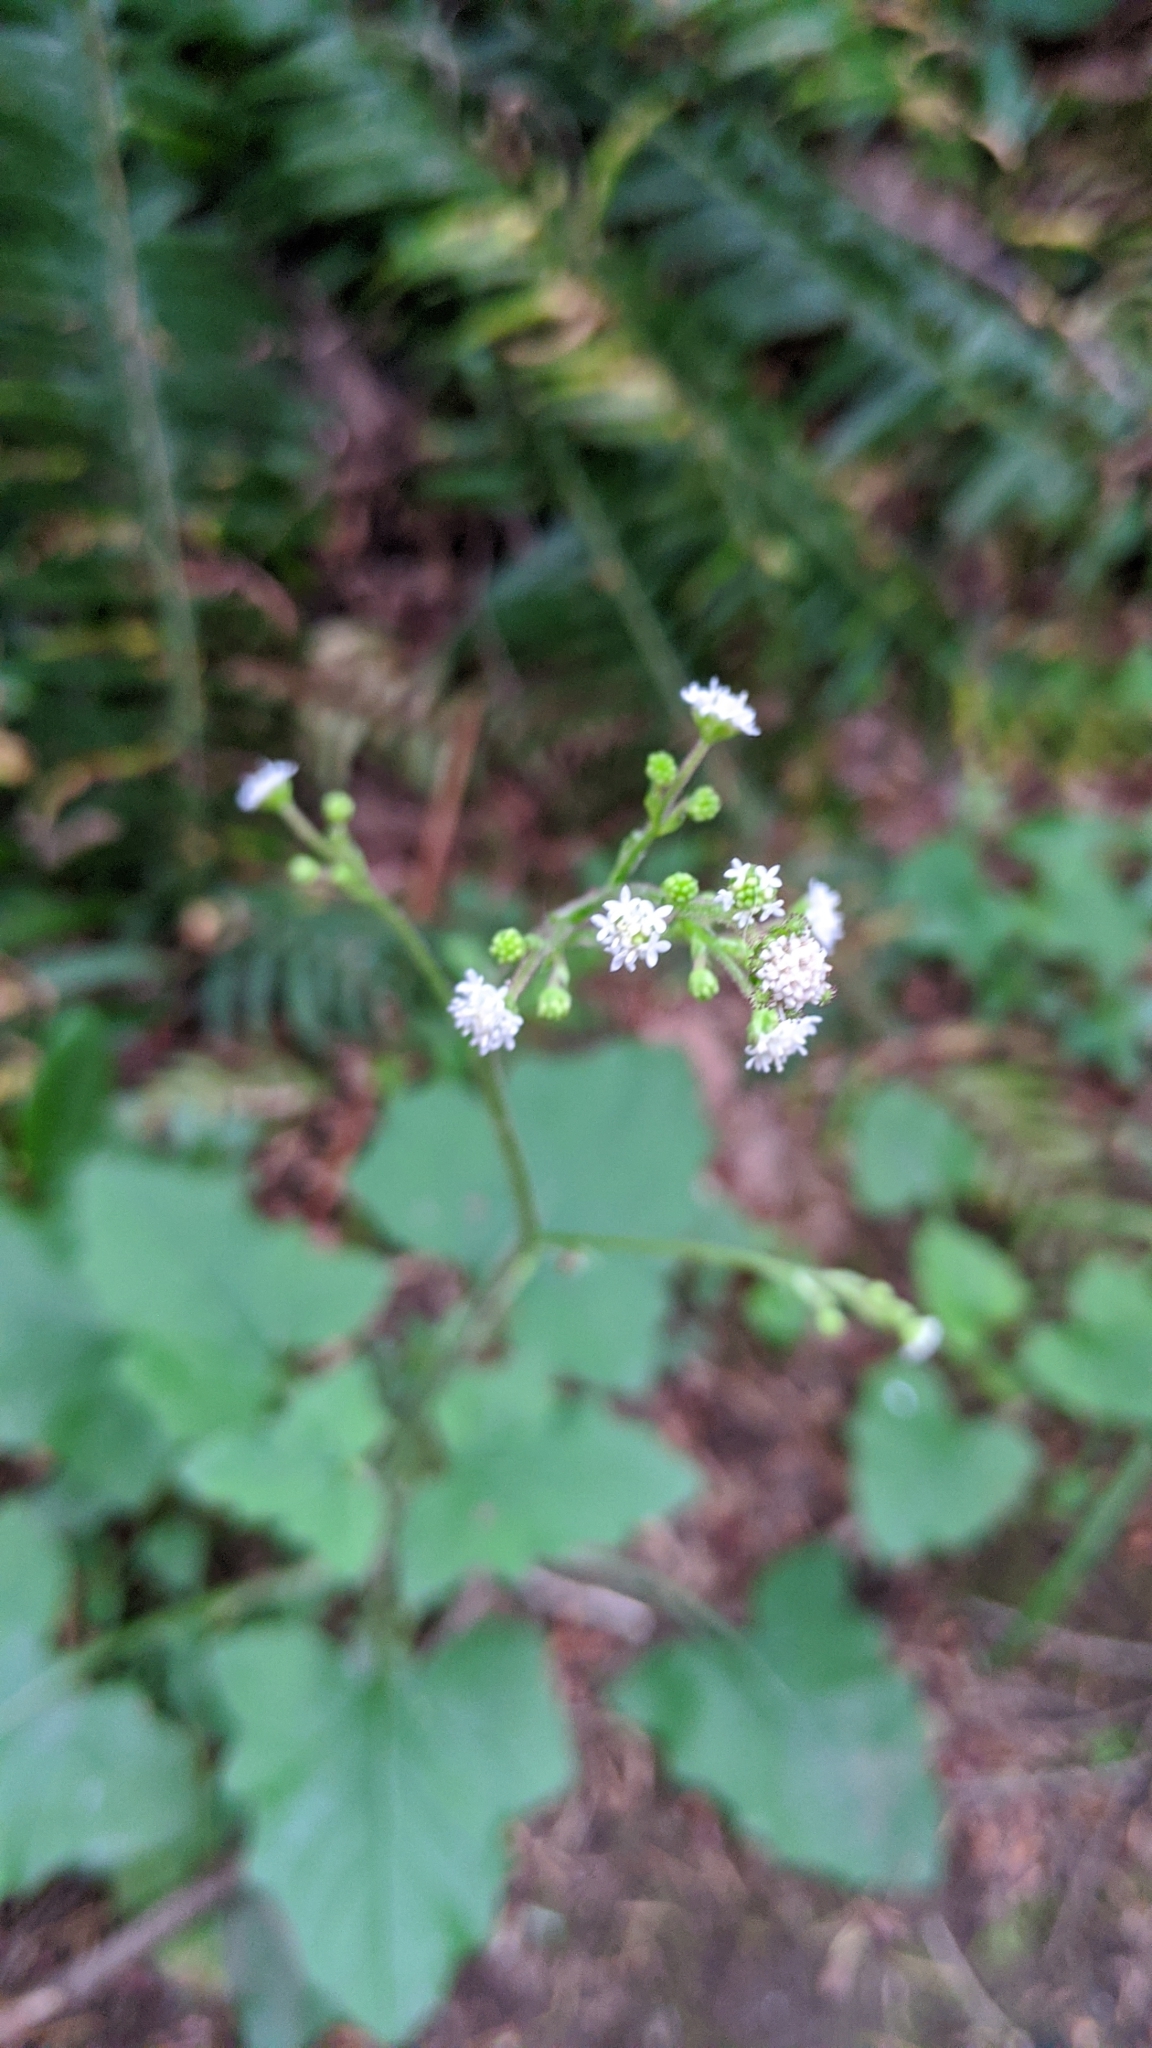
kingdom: Plantae
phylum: Tracheophyta
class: Magnoliopsida
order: Asterales
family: Asteraceae
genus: Adenocaulon
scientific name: Adenocaulon bicolor
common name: Trailplant
